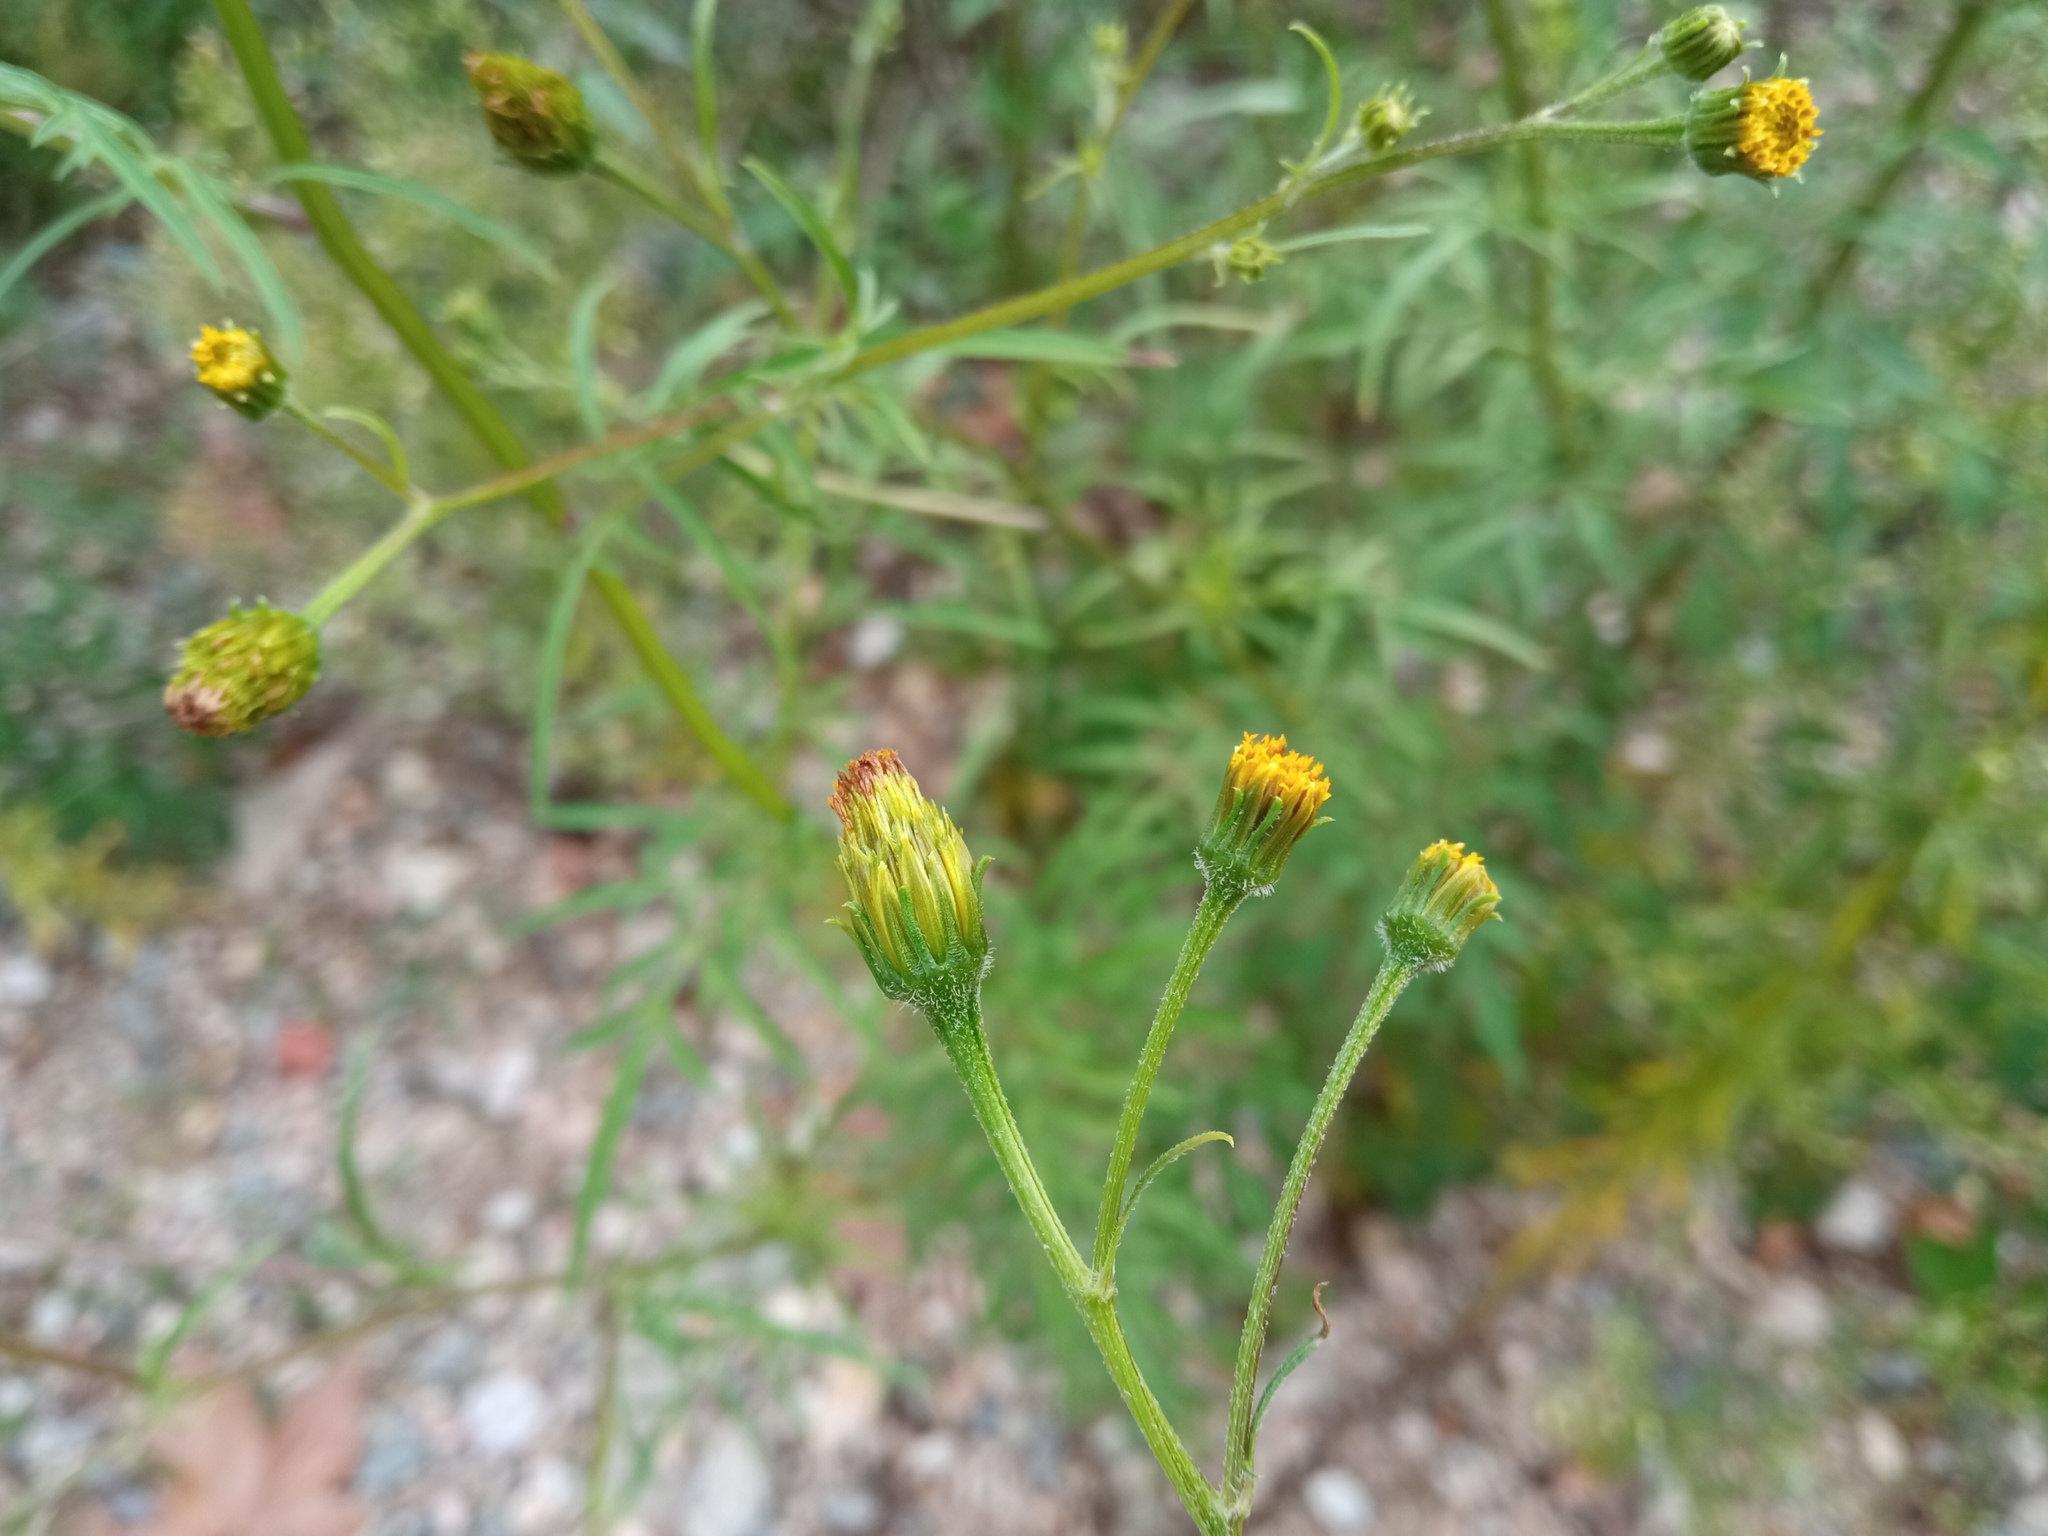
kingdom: Plantae
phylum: Tracheophyta
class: Magnoliopsida
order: Asterales
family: Asteraceae
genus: Bidens
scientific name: Bidens subalternans
